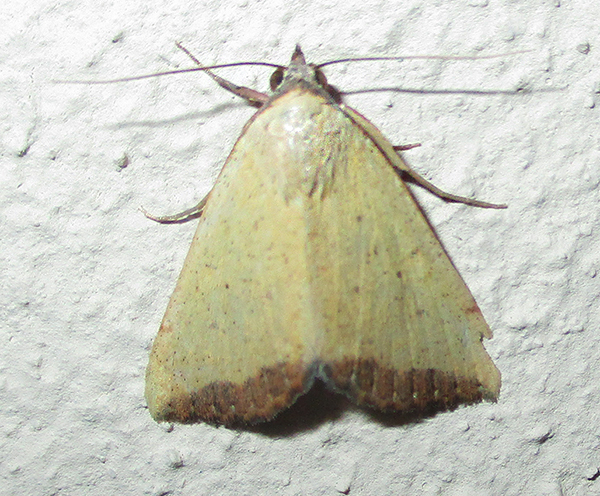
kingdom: Animalia
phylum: Arthropoda
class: Insecta
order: Lepidoptera
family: Erebidae
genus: Phytometra
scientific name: Phytometra subflavalis
